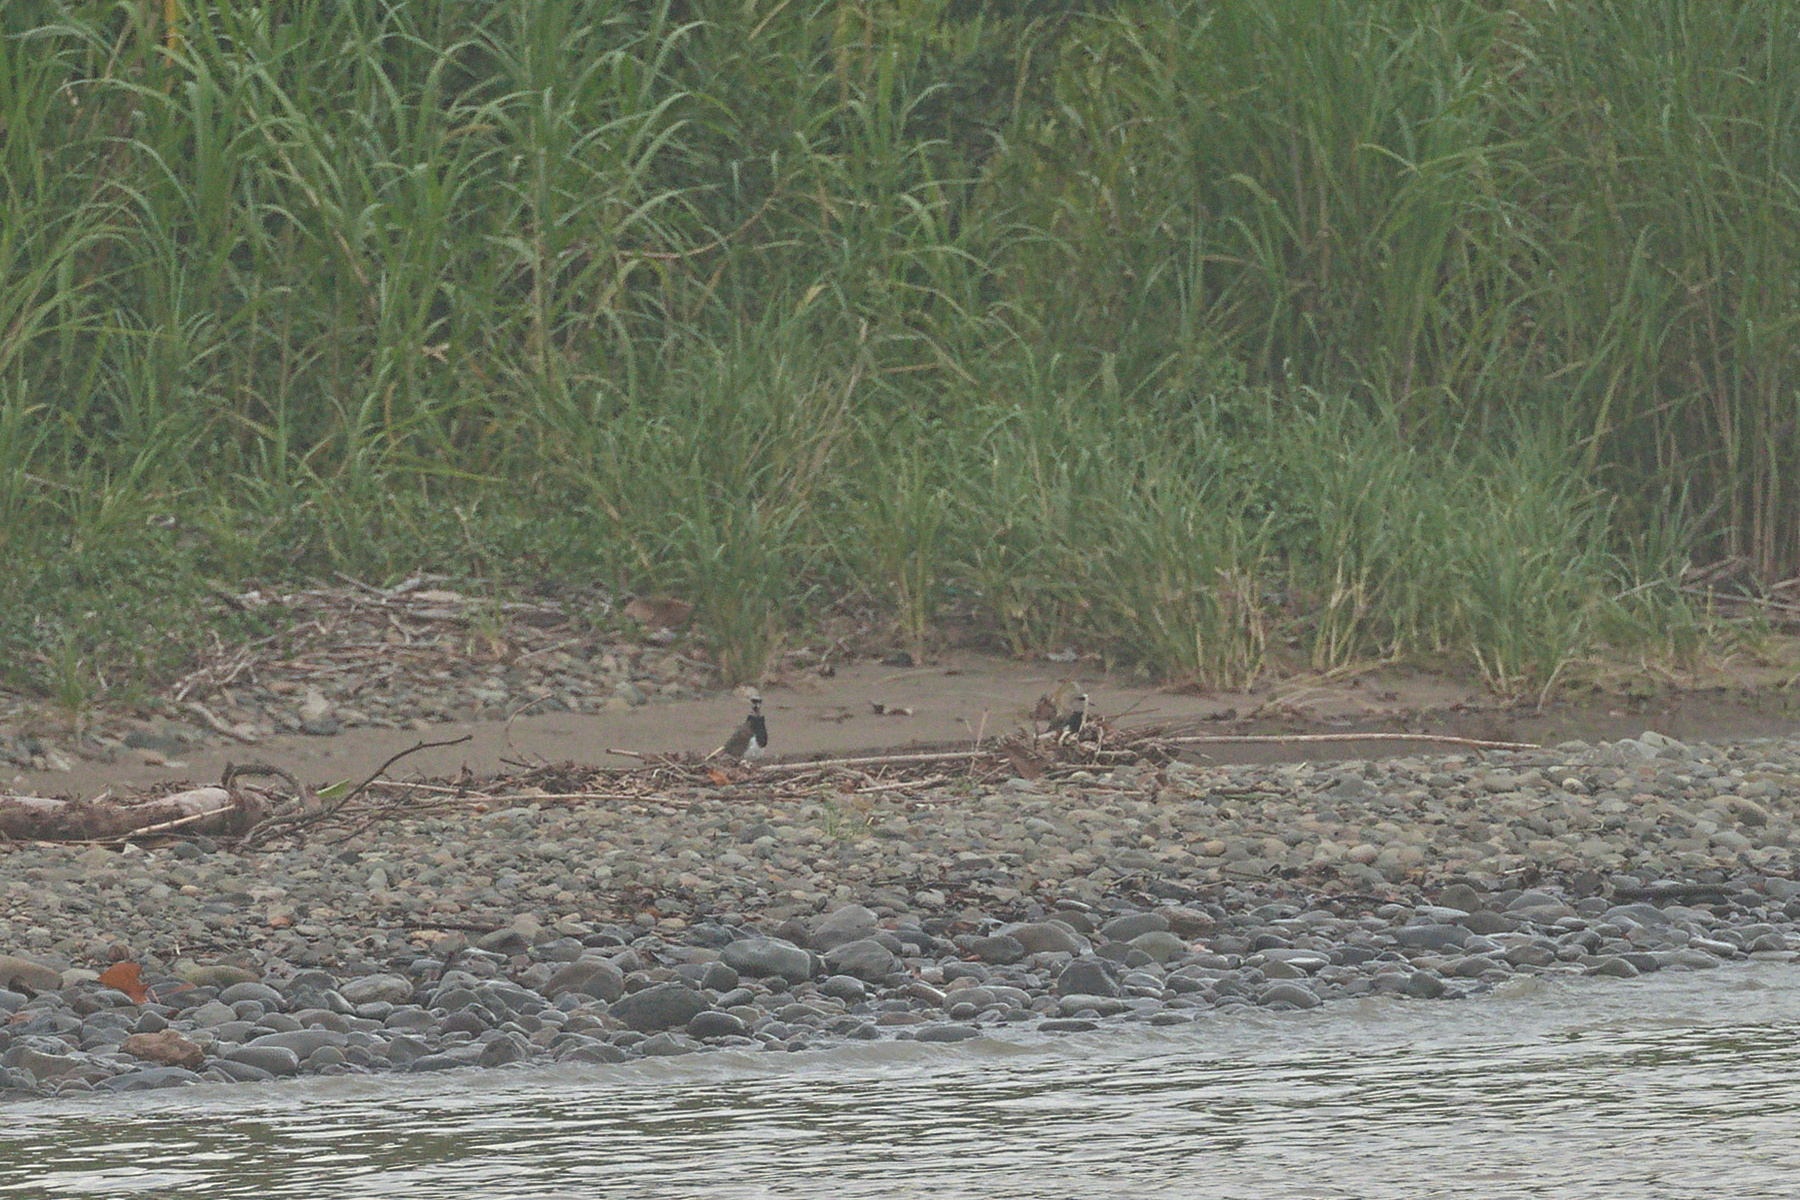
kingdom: Animalia
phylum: Chordata
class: Aves
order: Charadriiformes
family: Charadriidae
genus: Vanellus
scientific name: Vanellus chilensis
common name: Southern lapwing
